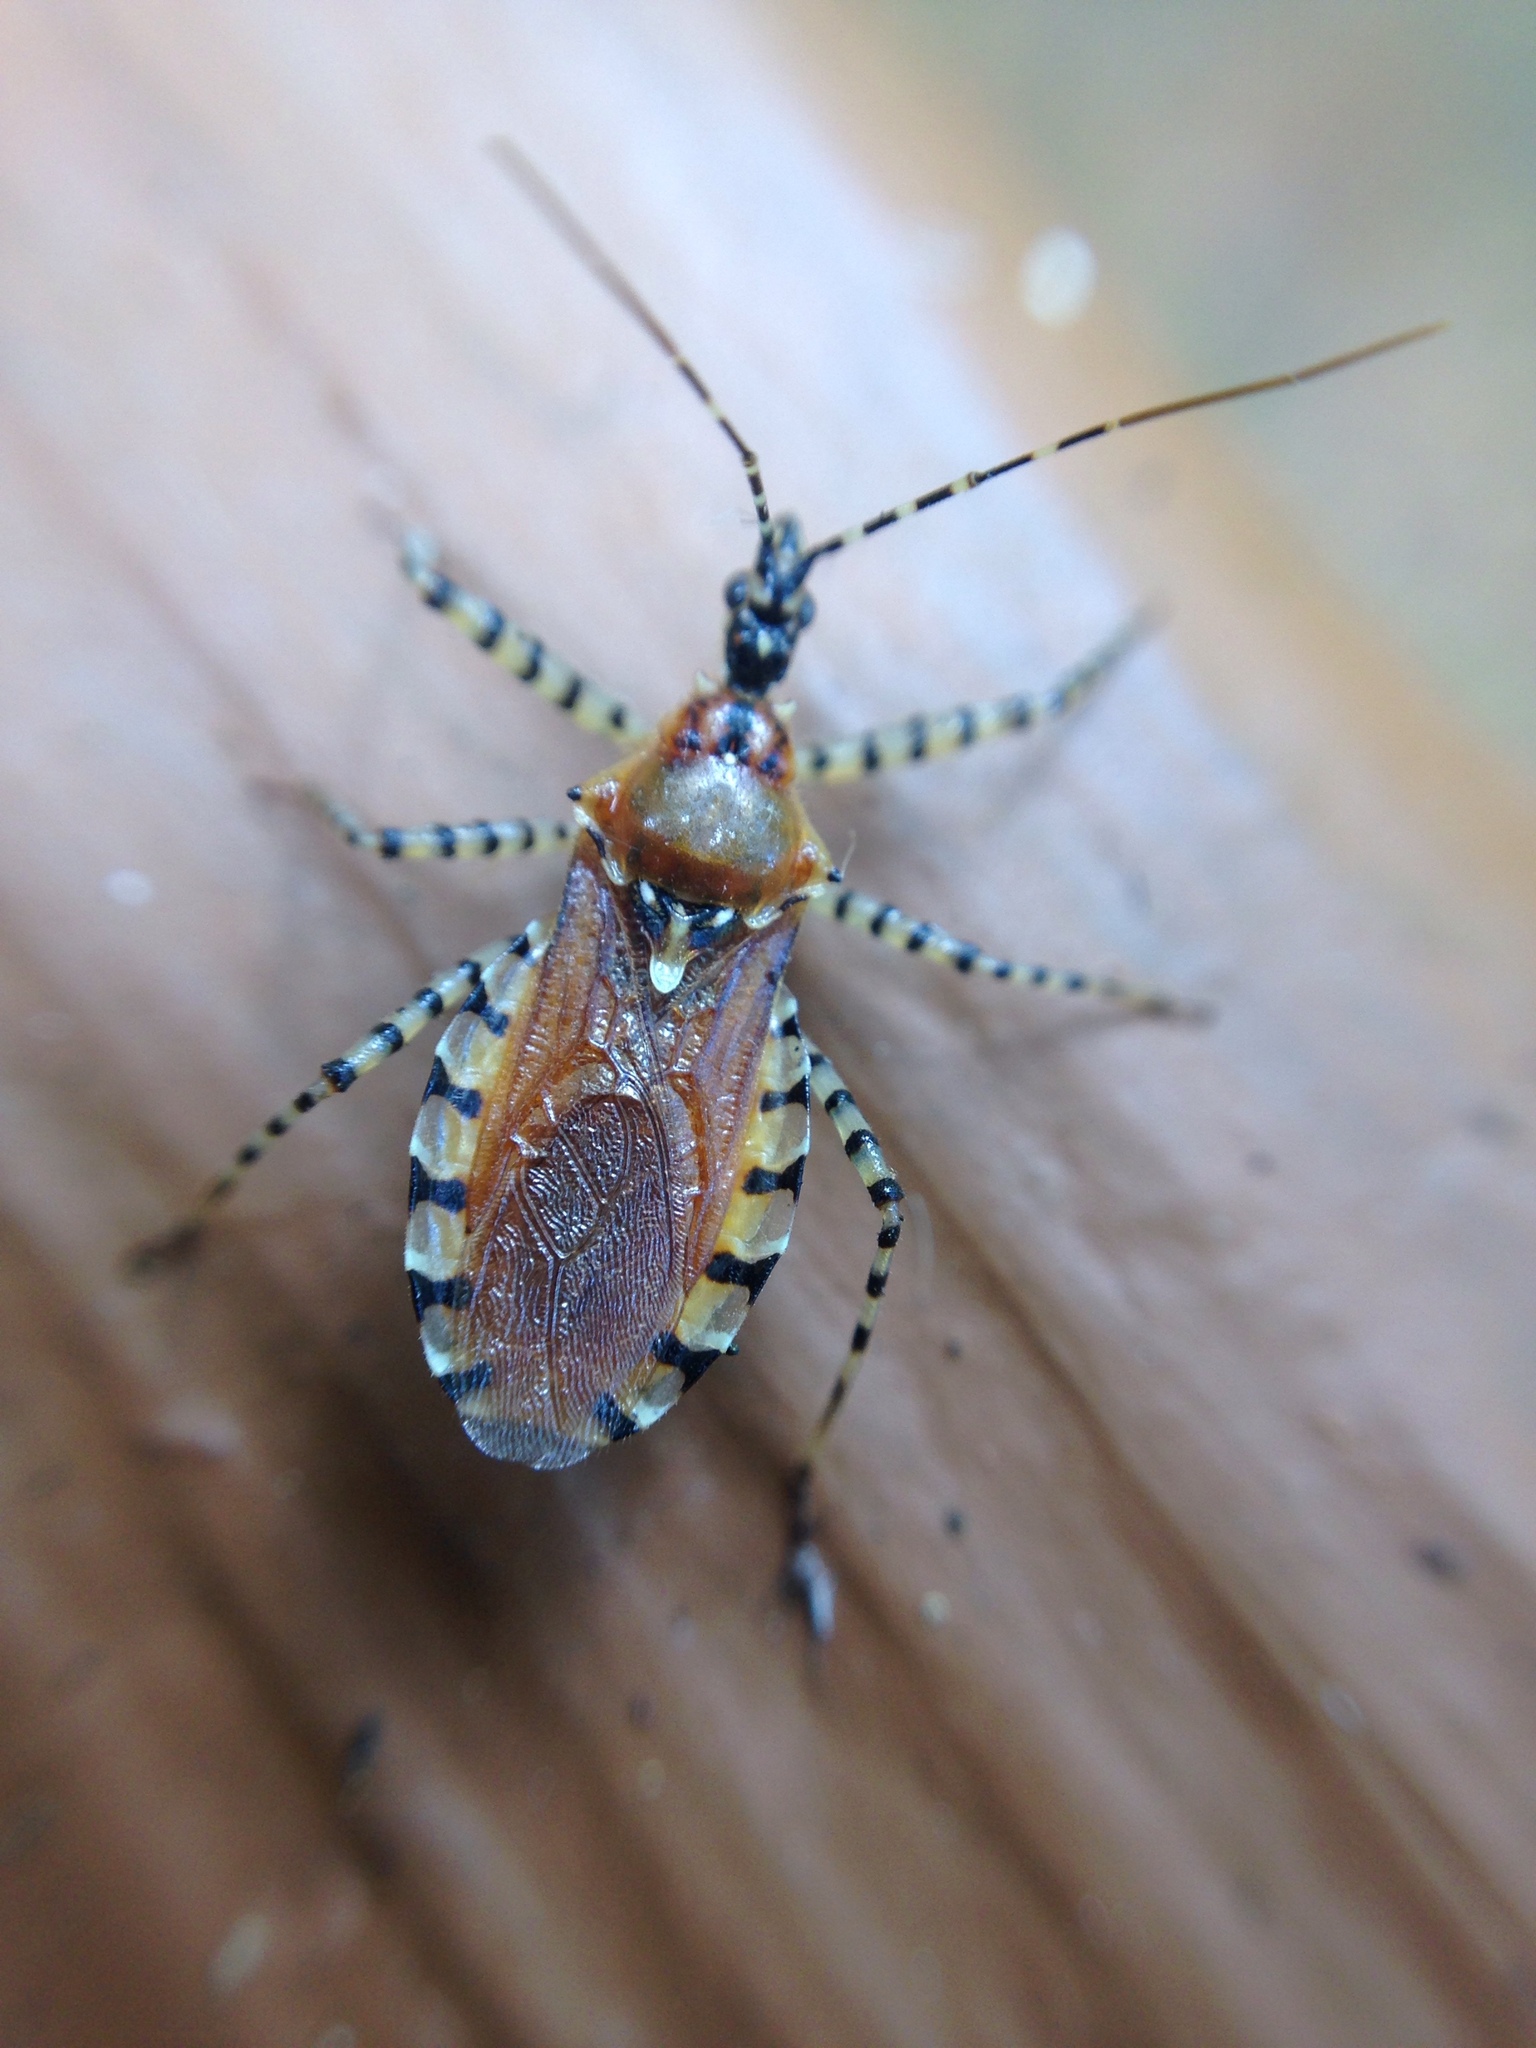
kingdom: Animalia
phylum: Arthropoda
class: Insecta
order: Hemiptera
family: Reduviidae
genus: Pselliopus
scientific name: Pselliopus cinctus
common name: Ringed assassin bug
